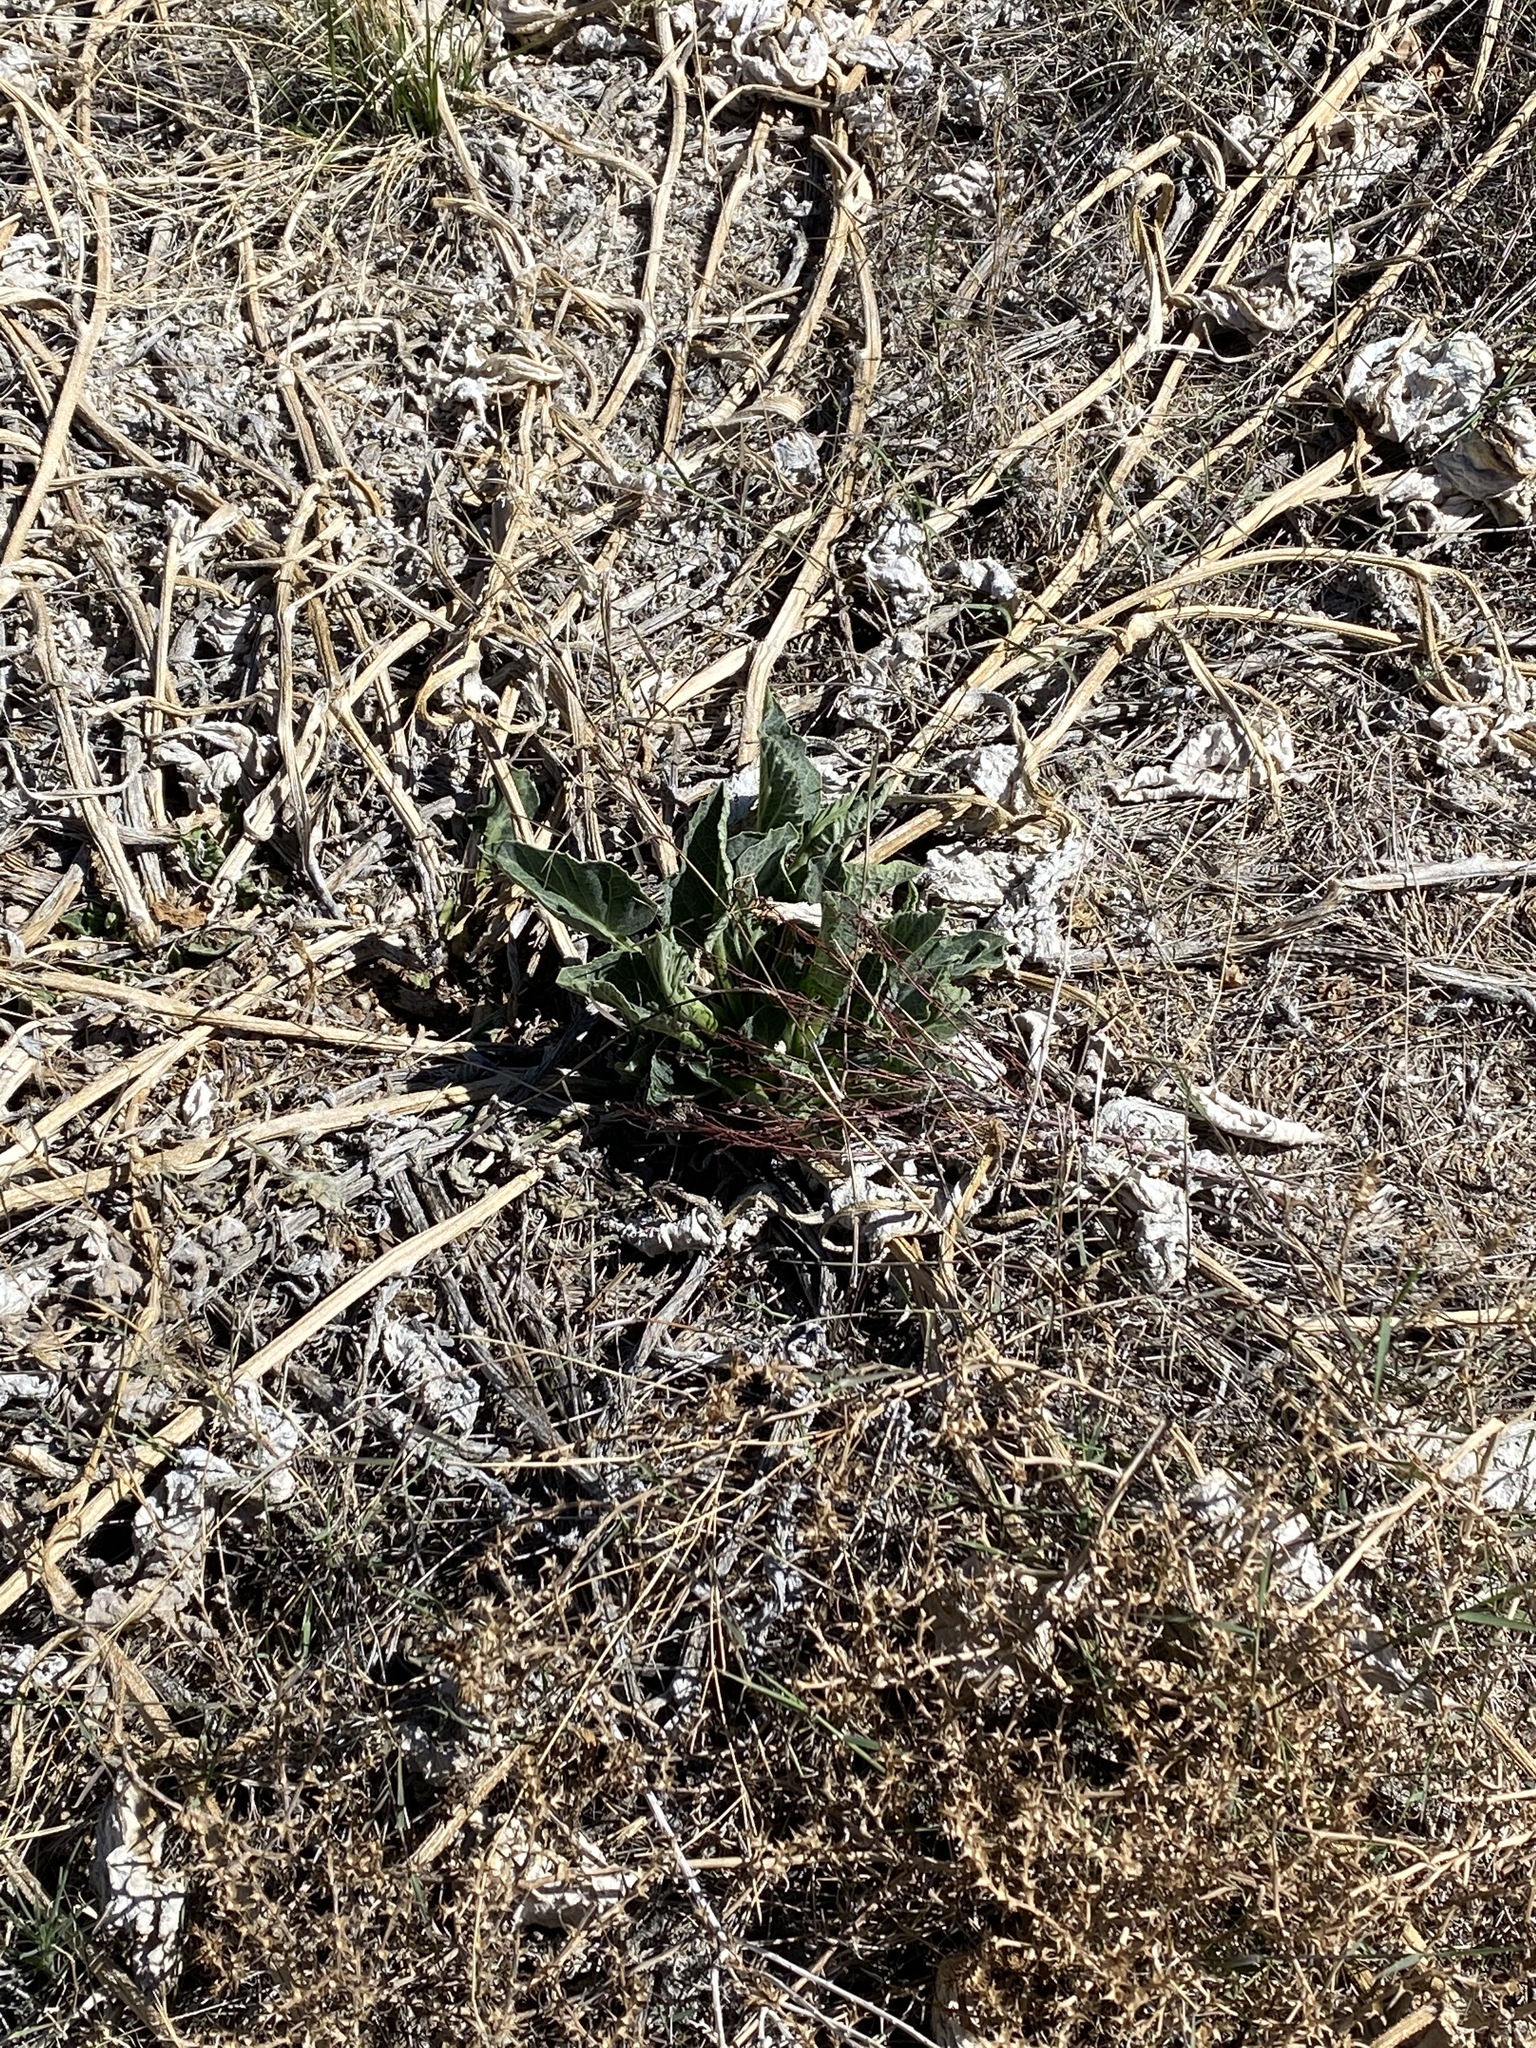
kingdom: Plantae
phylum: Tracheophyta
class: Magnoliopsida
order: Cucurbitales
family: Cucurbitaceae
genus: Cucurbita
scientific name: Cucurbita foetidissima
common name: Buffalo gourd
